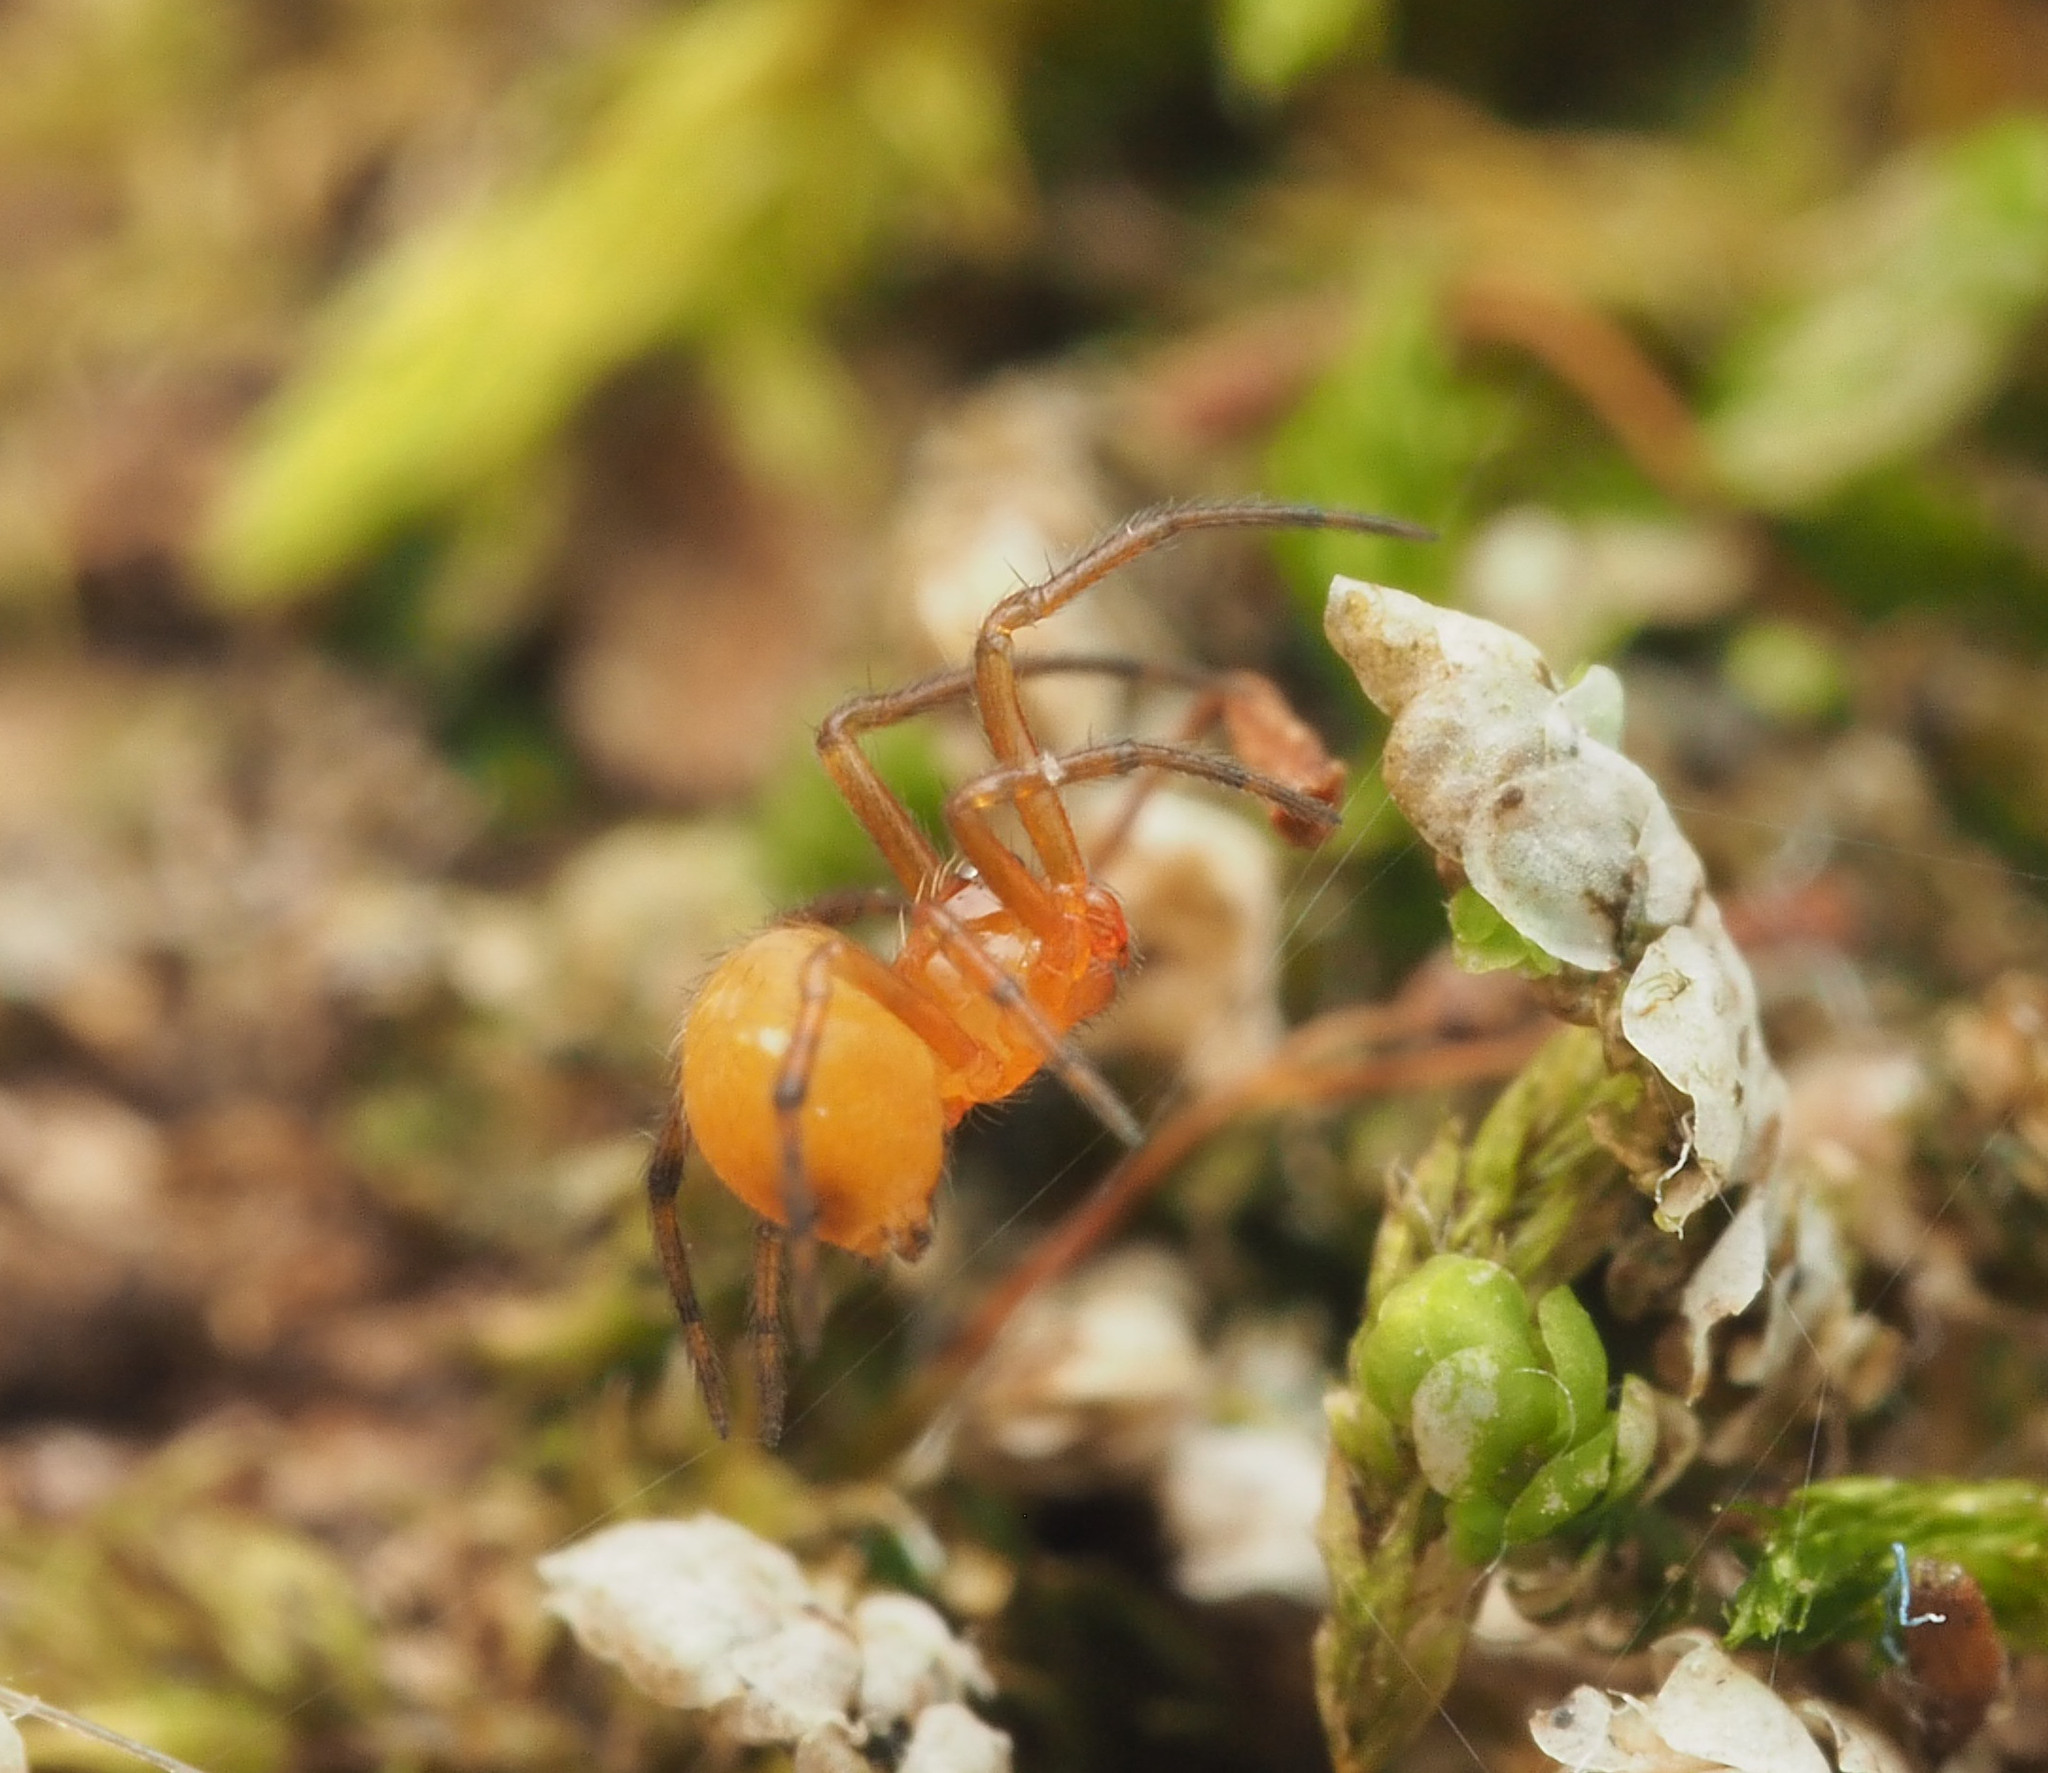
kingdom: Animalia
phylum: Arthropoda
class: Arachnida
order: Araneae
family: Theridiidae
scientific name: Theridiidae
